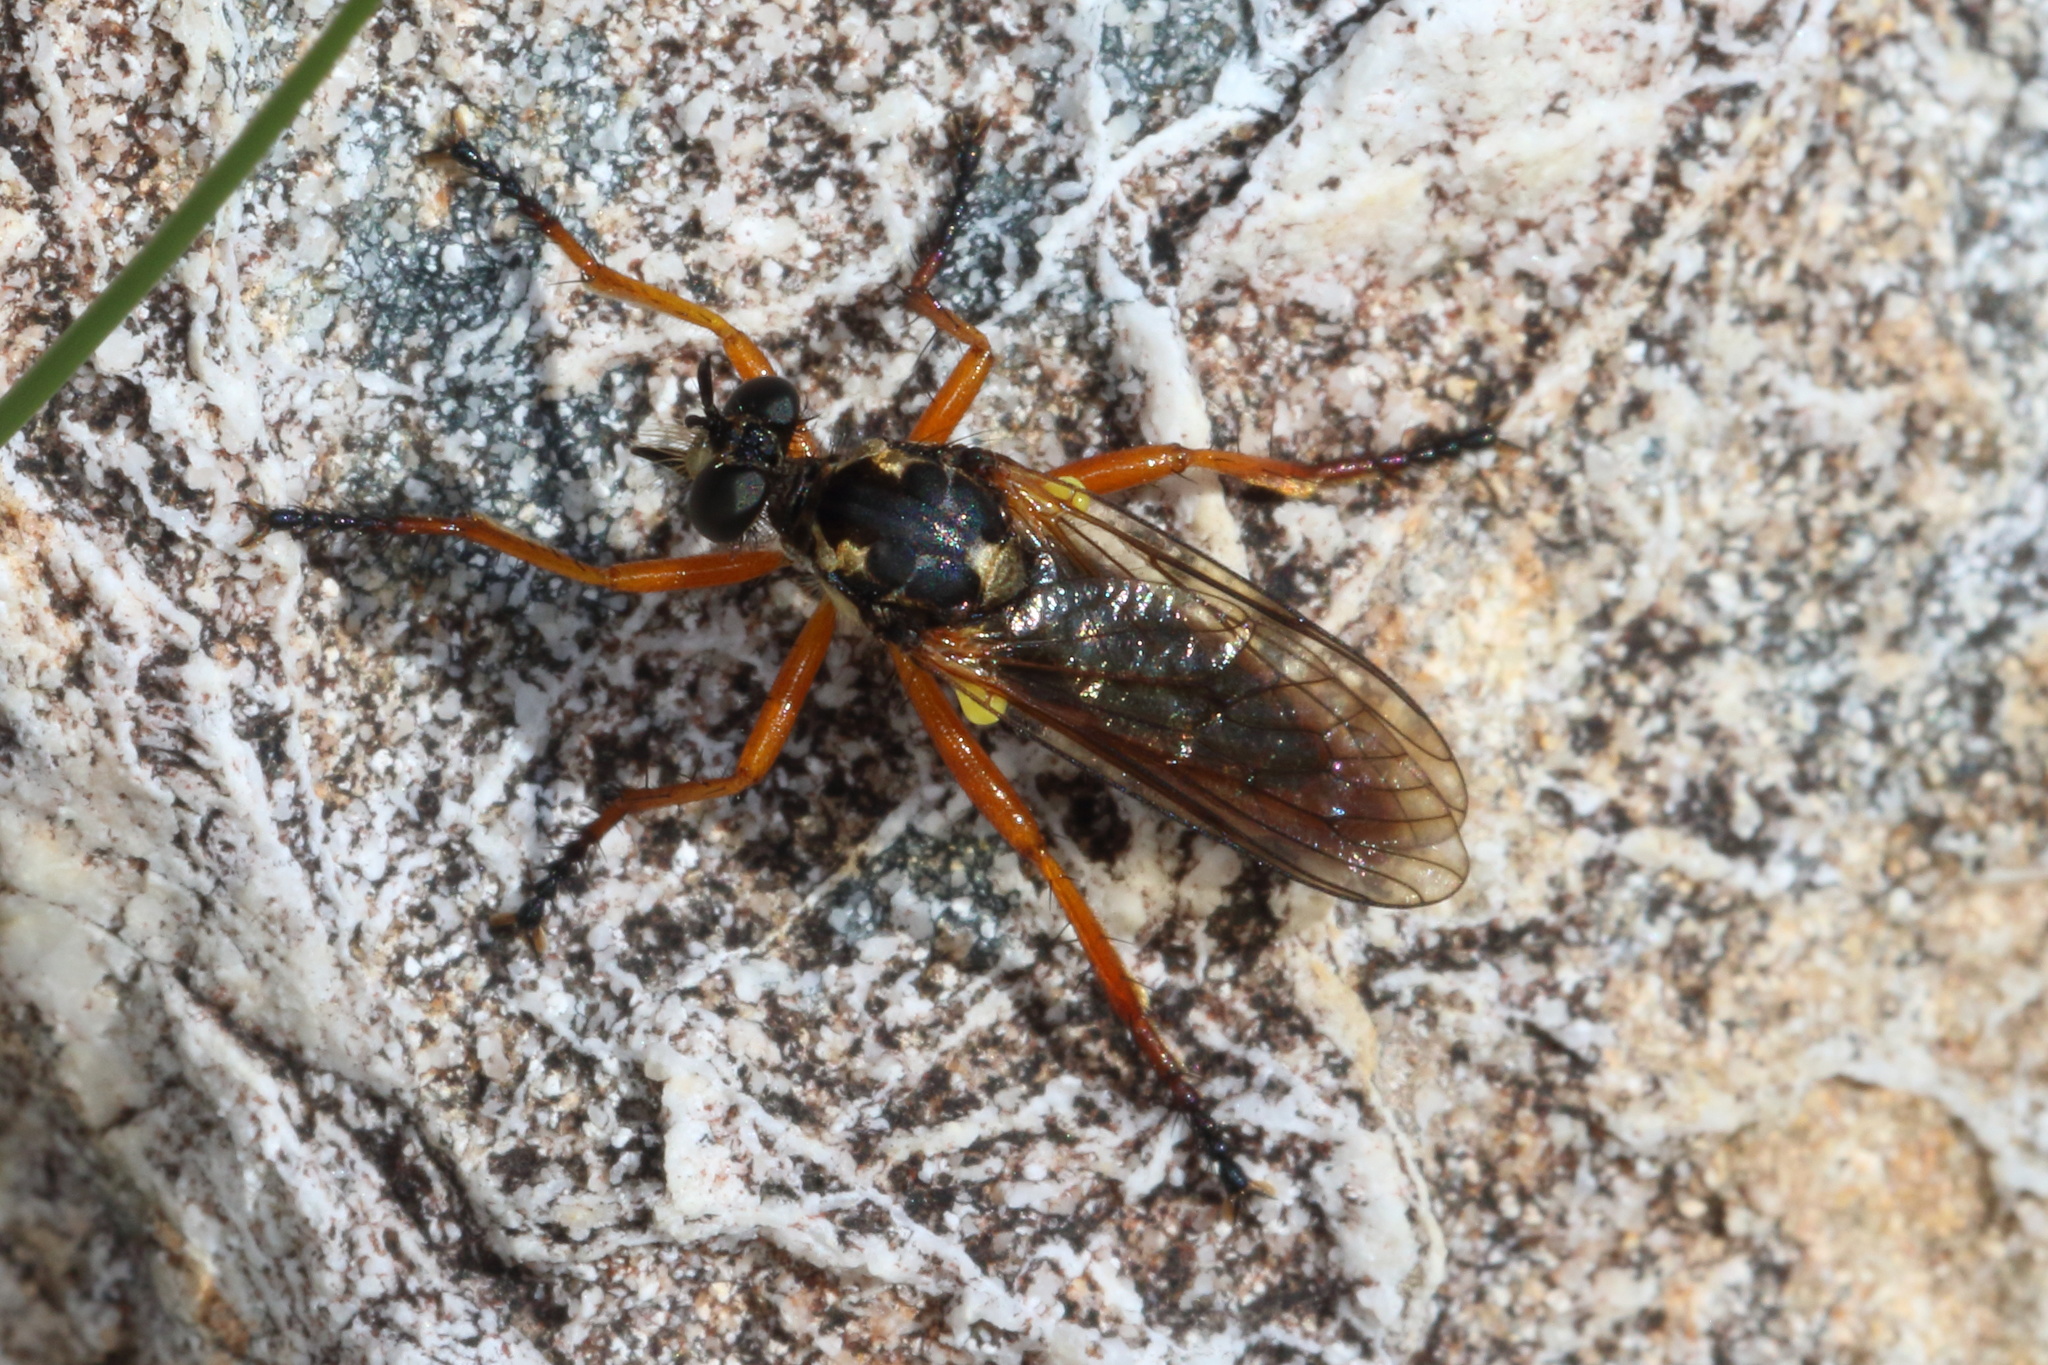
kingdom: Animalia
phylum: Arthropoda
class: Insecta
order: Diptera
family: Asilidae
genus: Saropogon
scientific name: Saropogon fugiens
